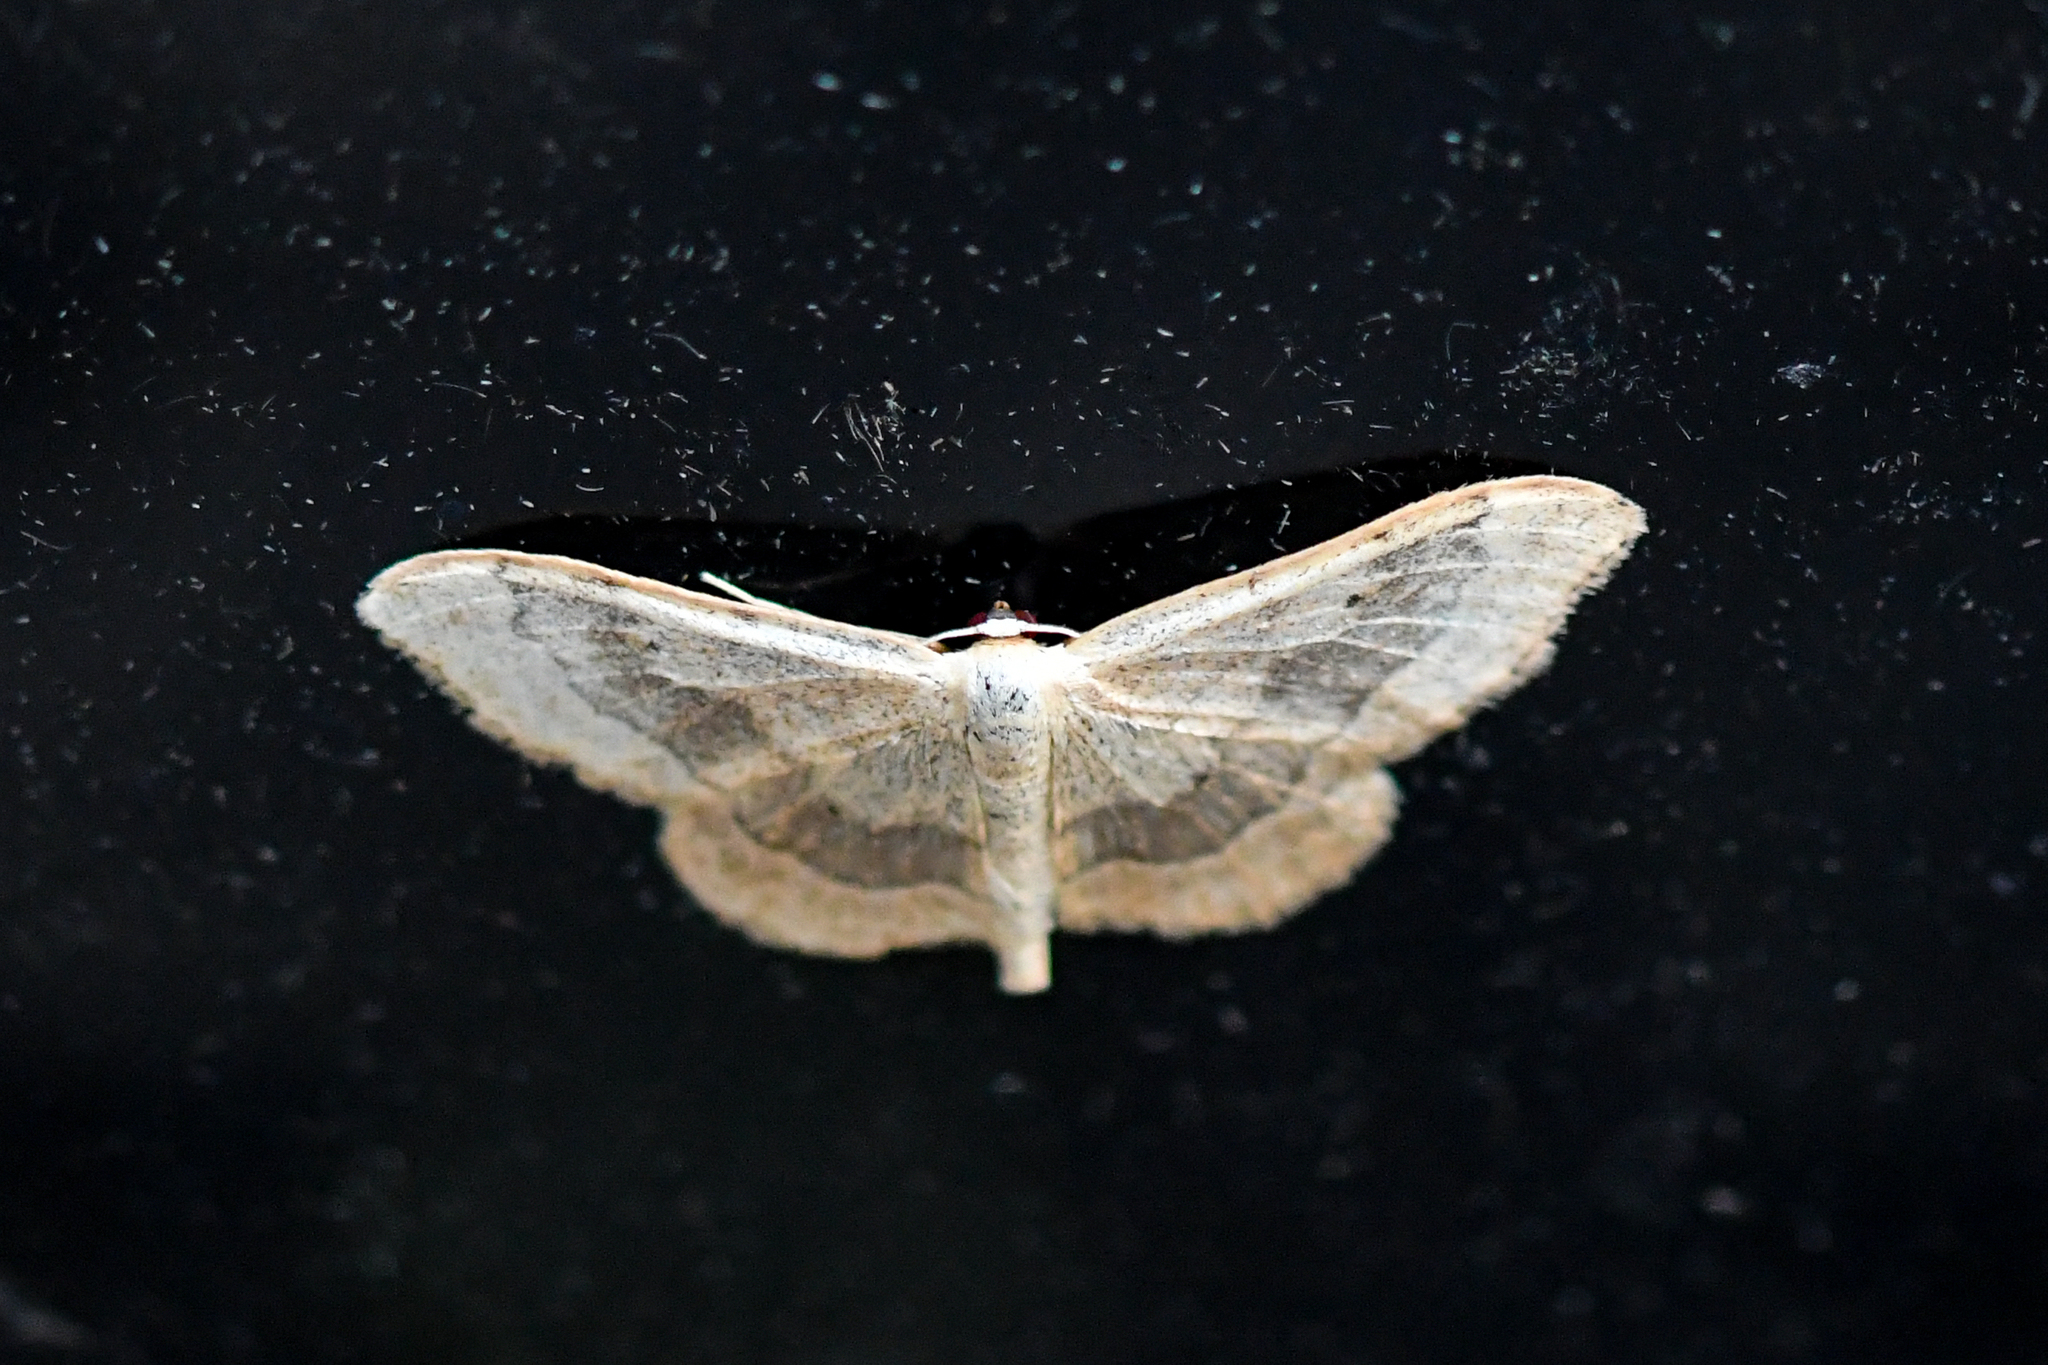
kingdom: Animalia
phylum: Arthropoda
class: Insecta
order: Lepidoptera
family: Geometridae
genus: Idaea
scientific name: Idaea aversata
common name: Riband wave
